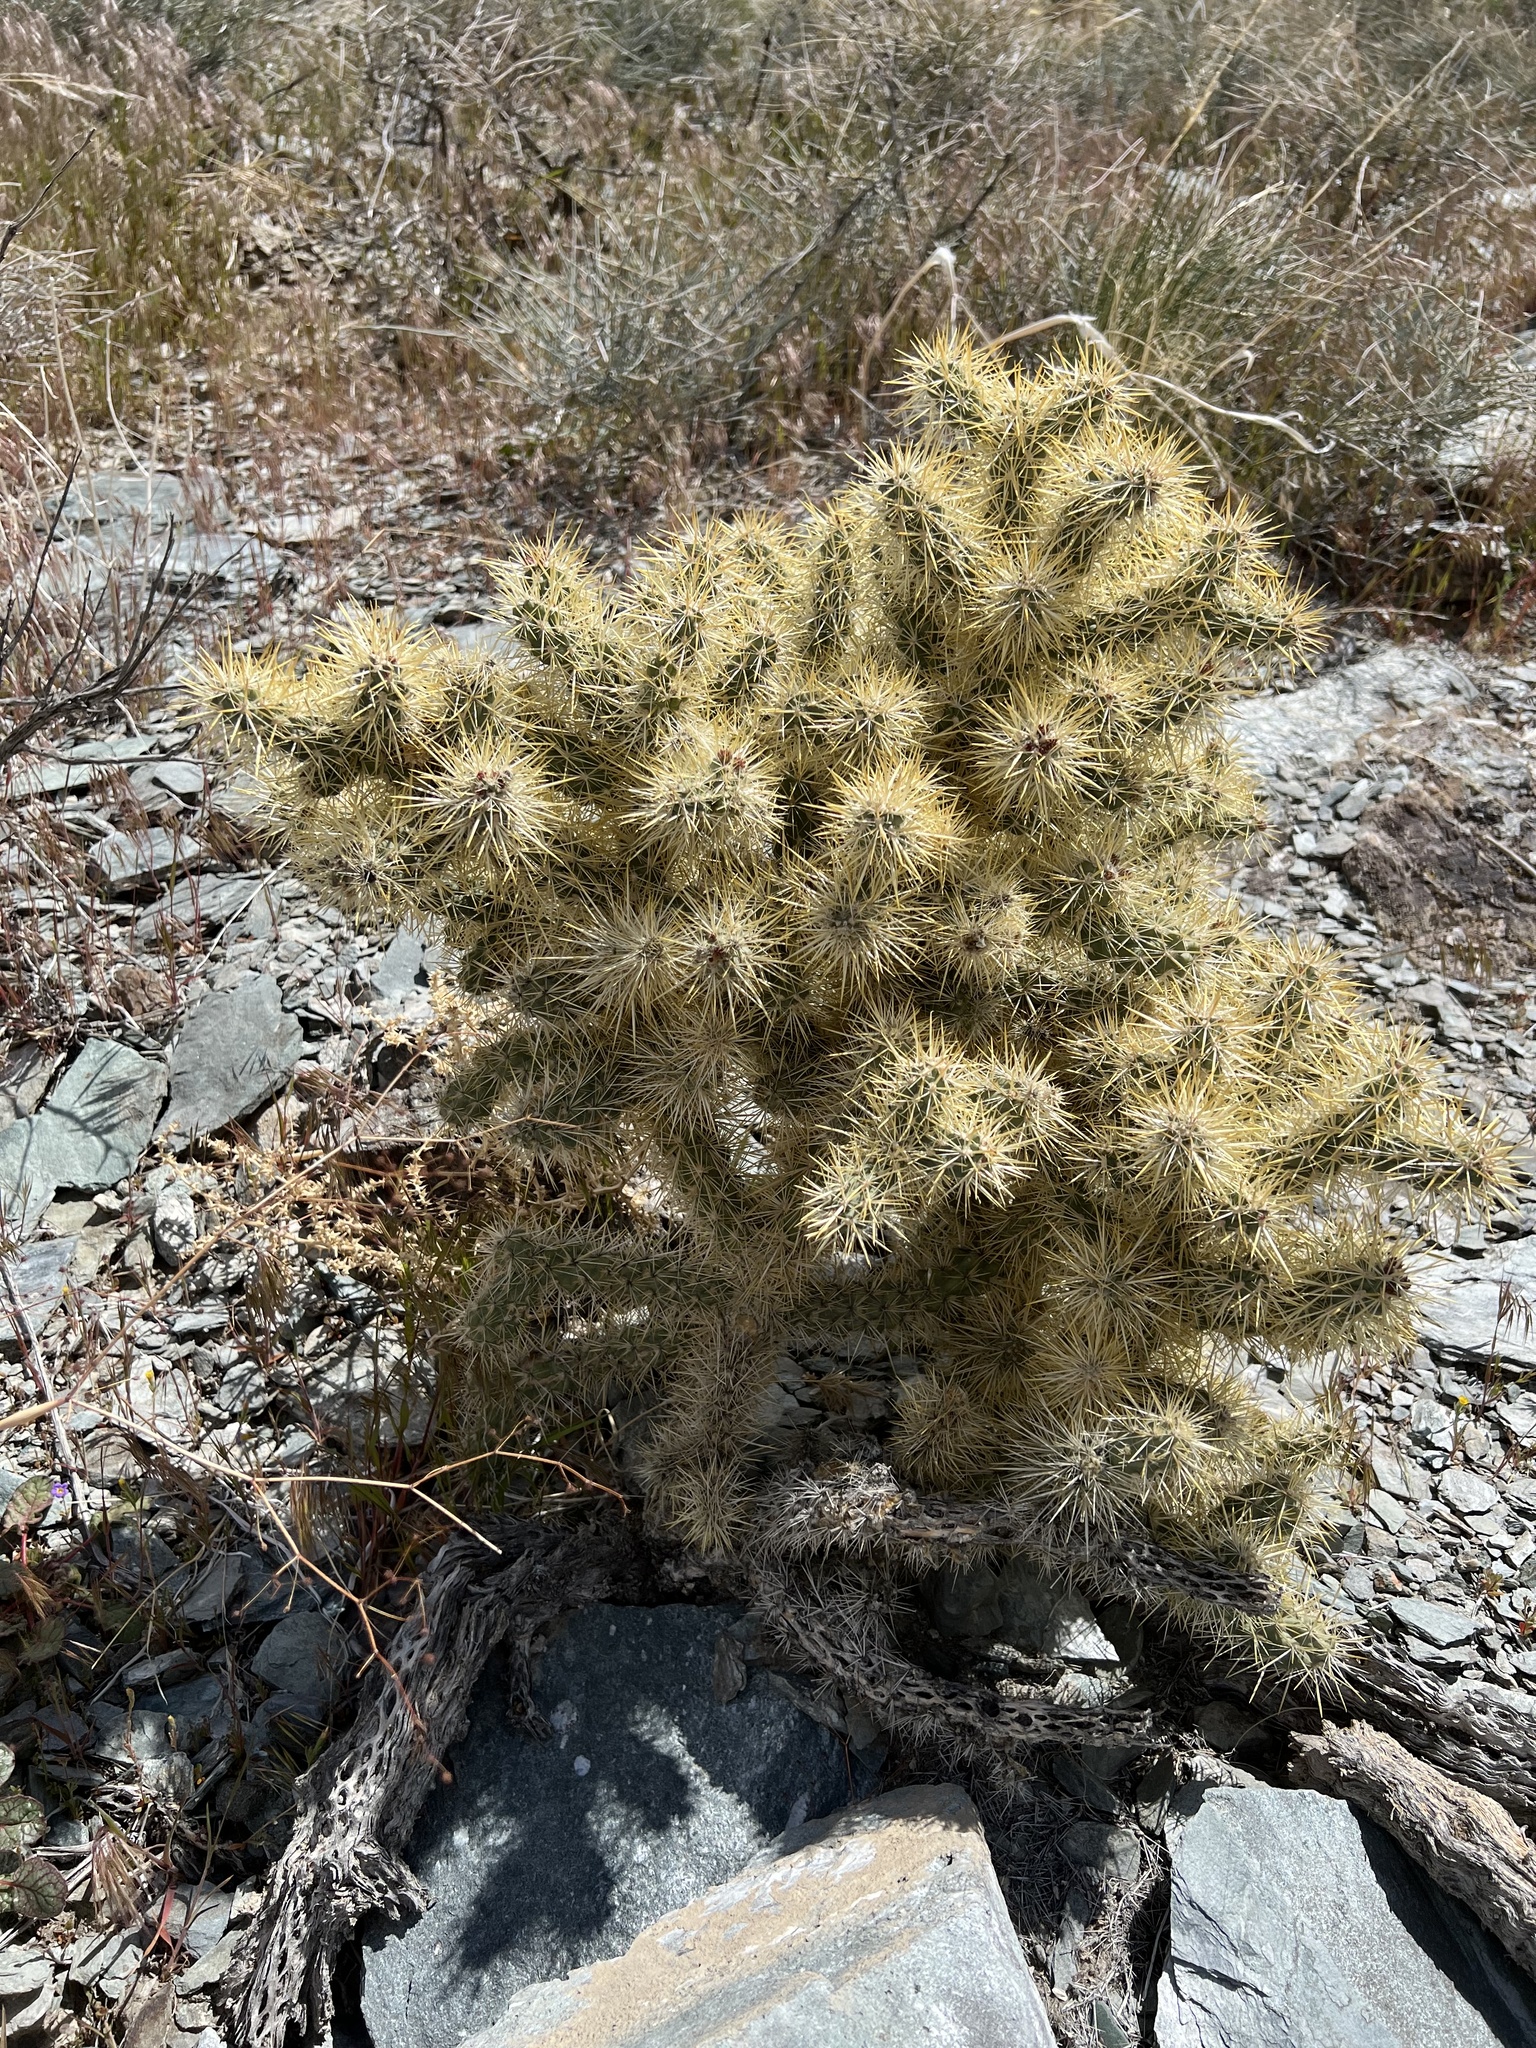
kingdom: Plantae
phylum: Tracheophyta
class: Magnoliopsida
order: Caryophyllales
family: Cactaceae
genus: Cylindropuntia
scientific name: Cylindropuntia echinocarpa
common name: Ground cholla
